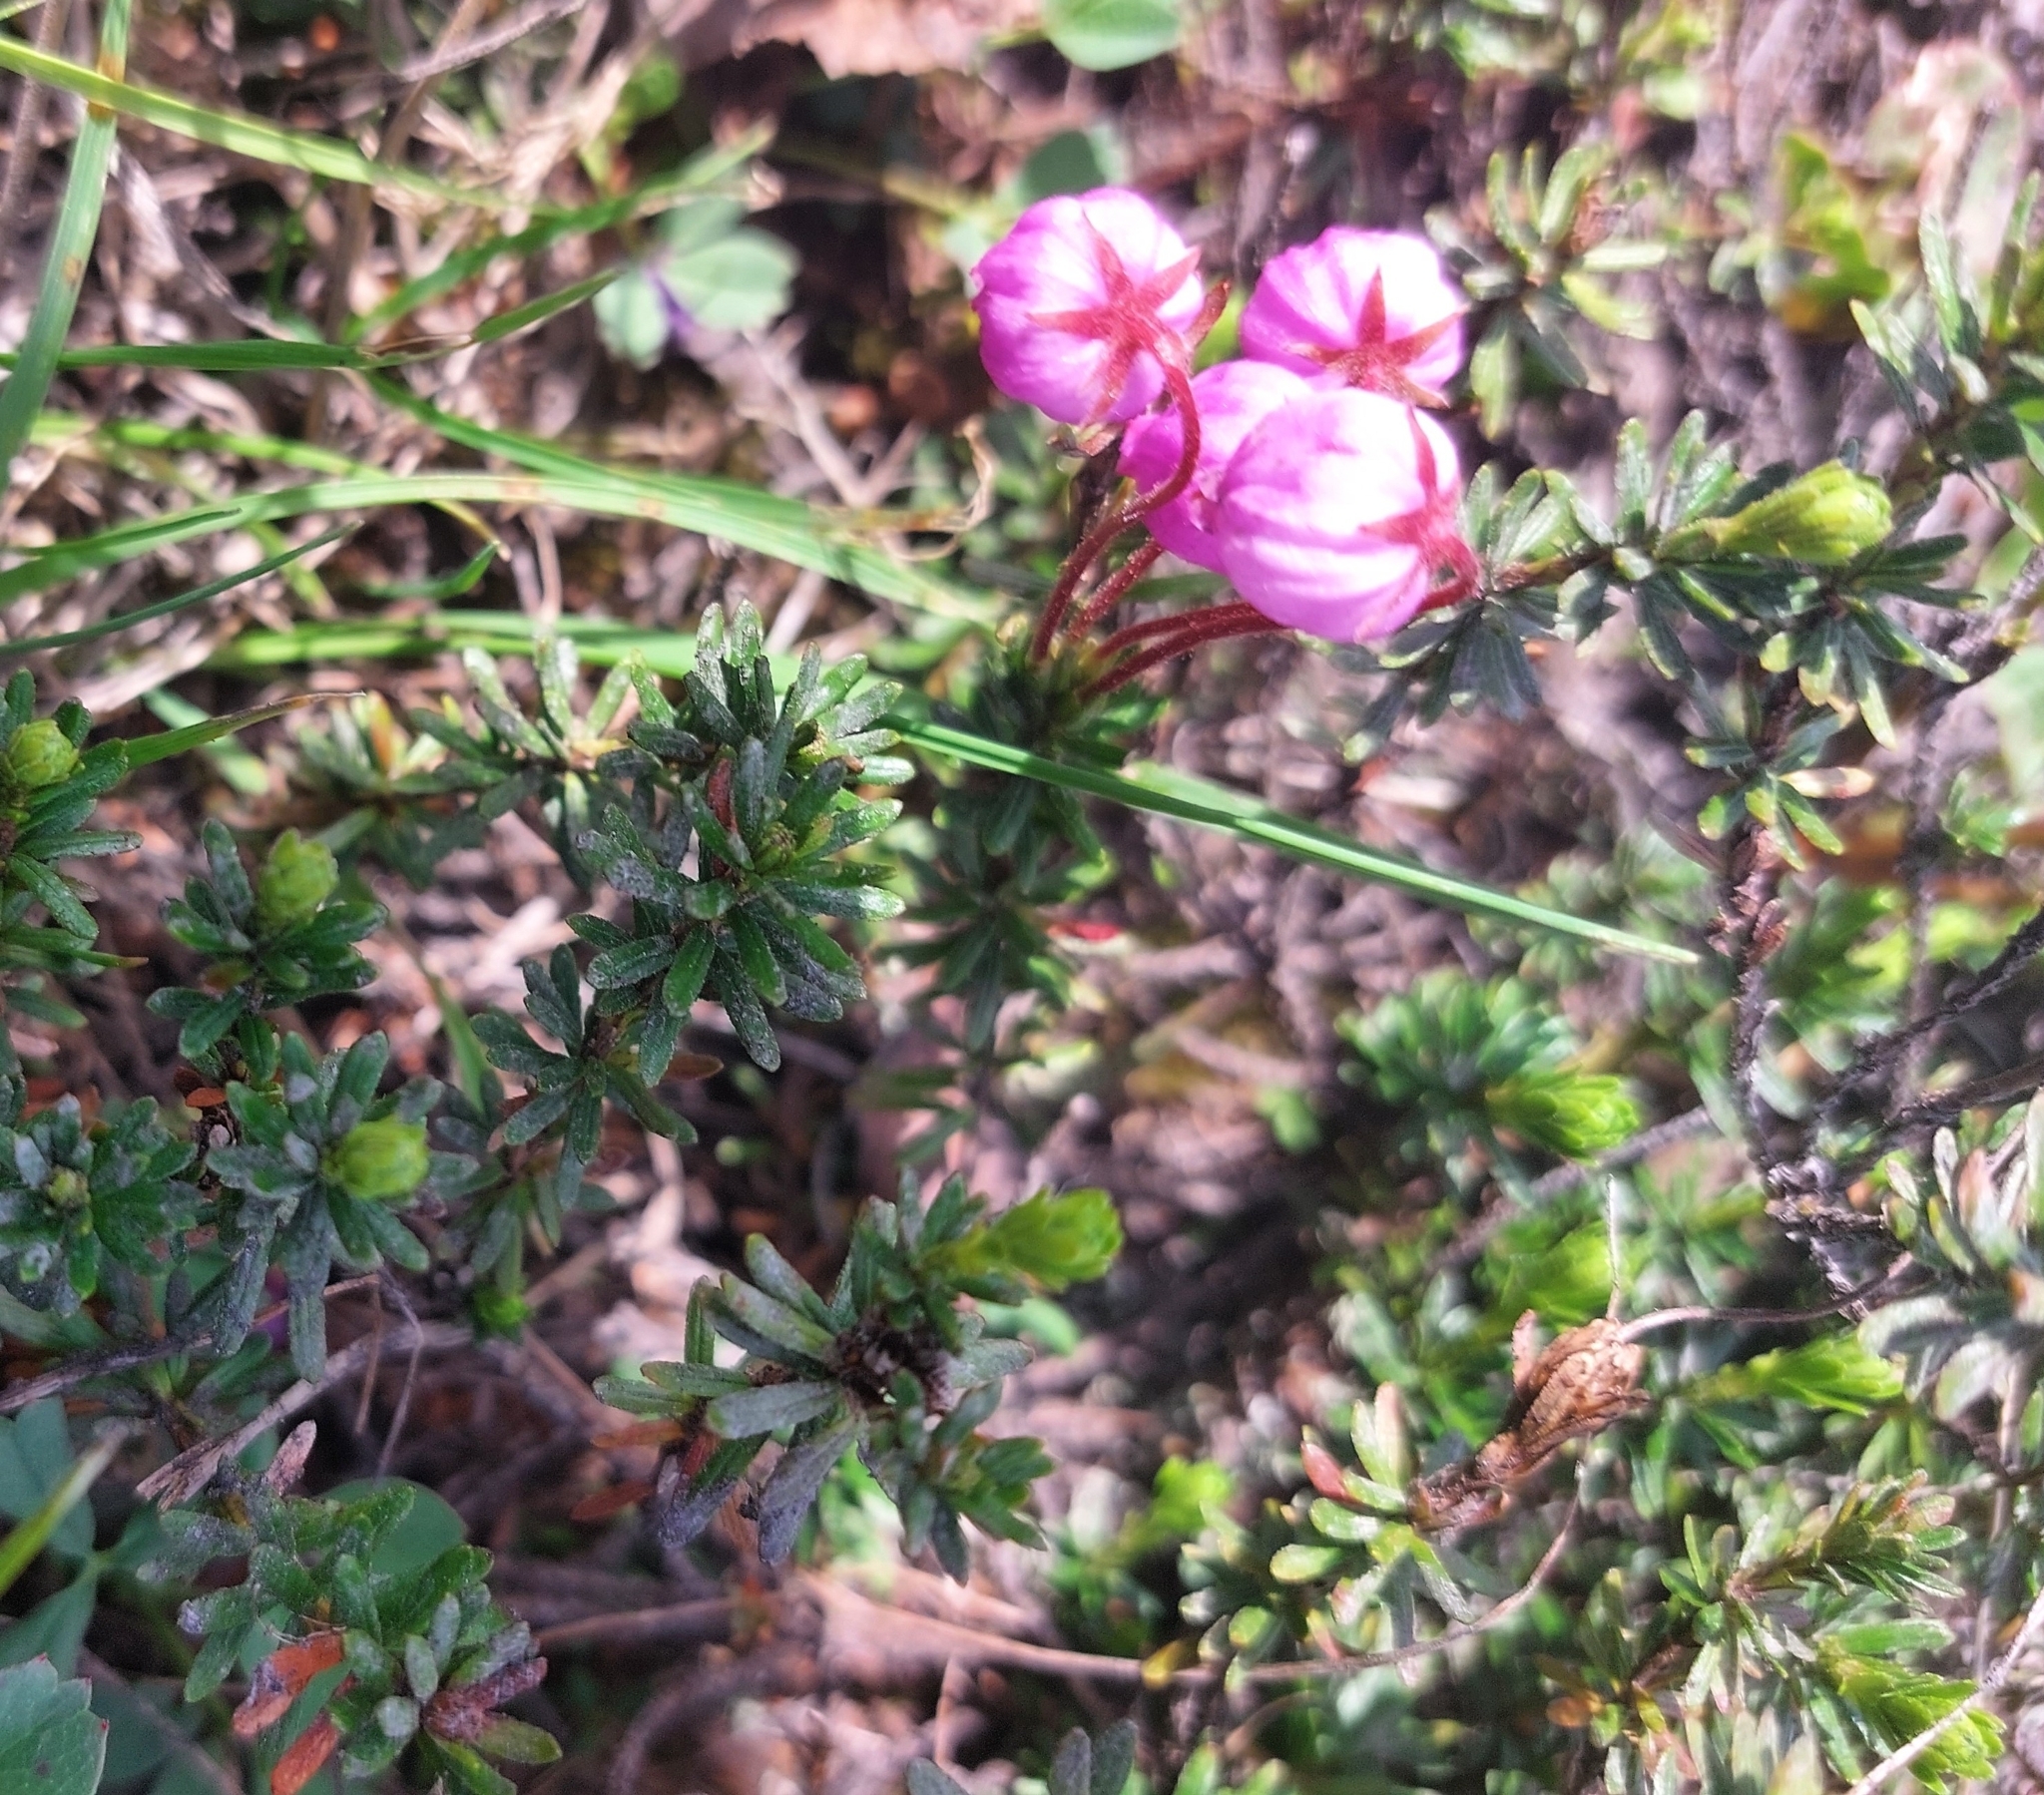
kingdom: Plantae
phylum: Tracheophyta
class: Magnoliopsida
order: Ericales
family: Ericaceae
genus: Phyllodoce
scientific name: Phyllodoce caerulea
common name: Blue heath
